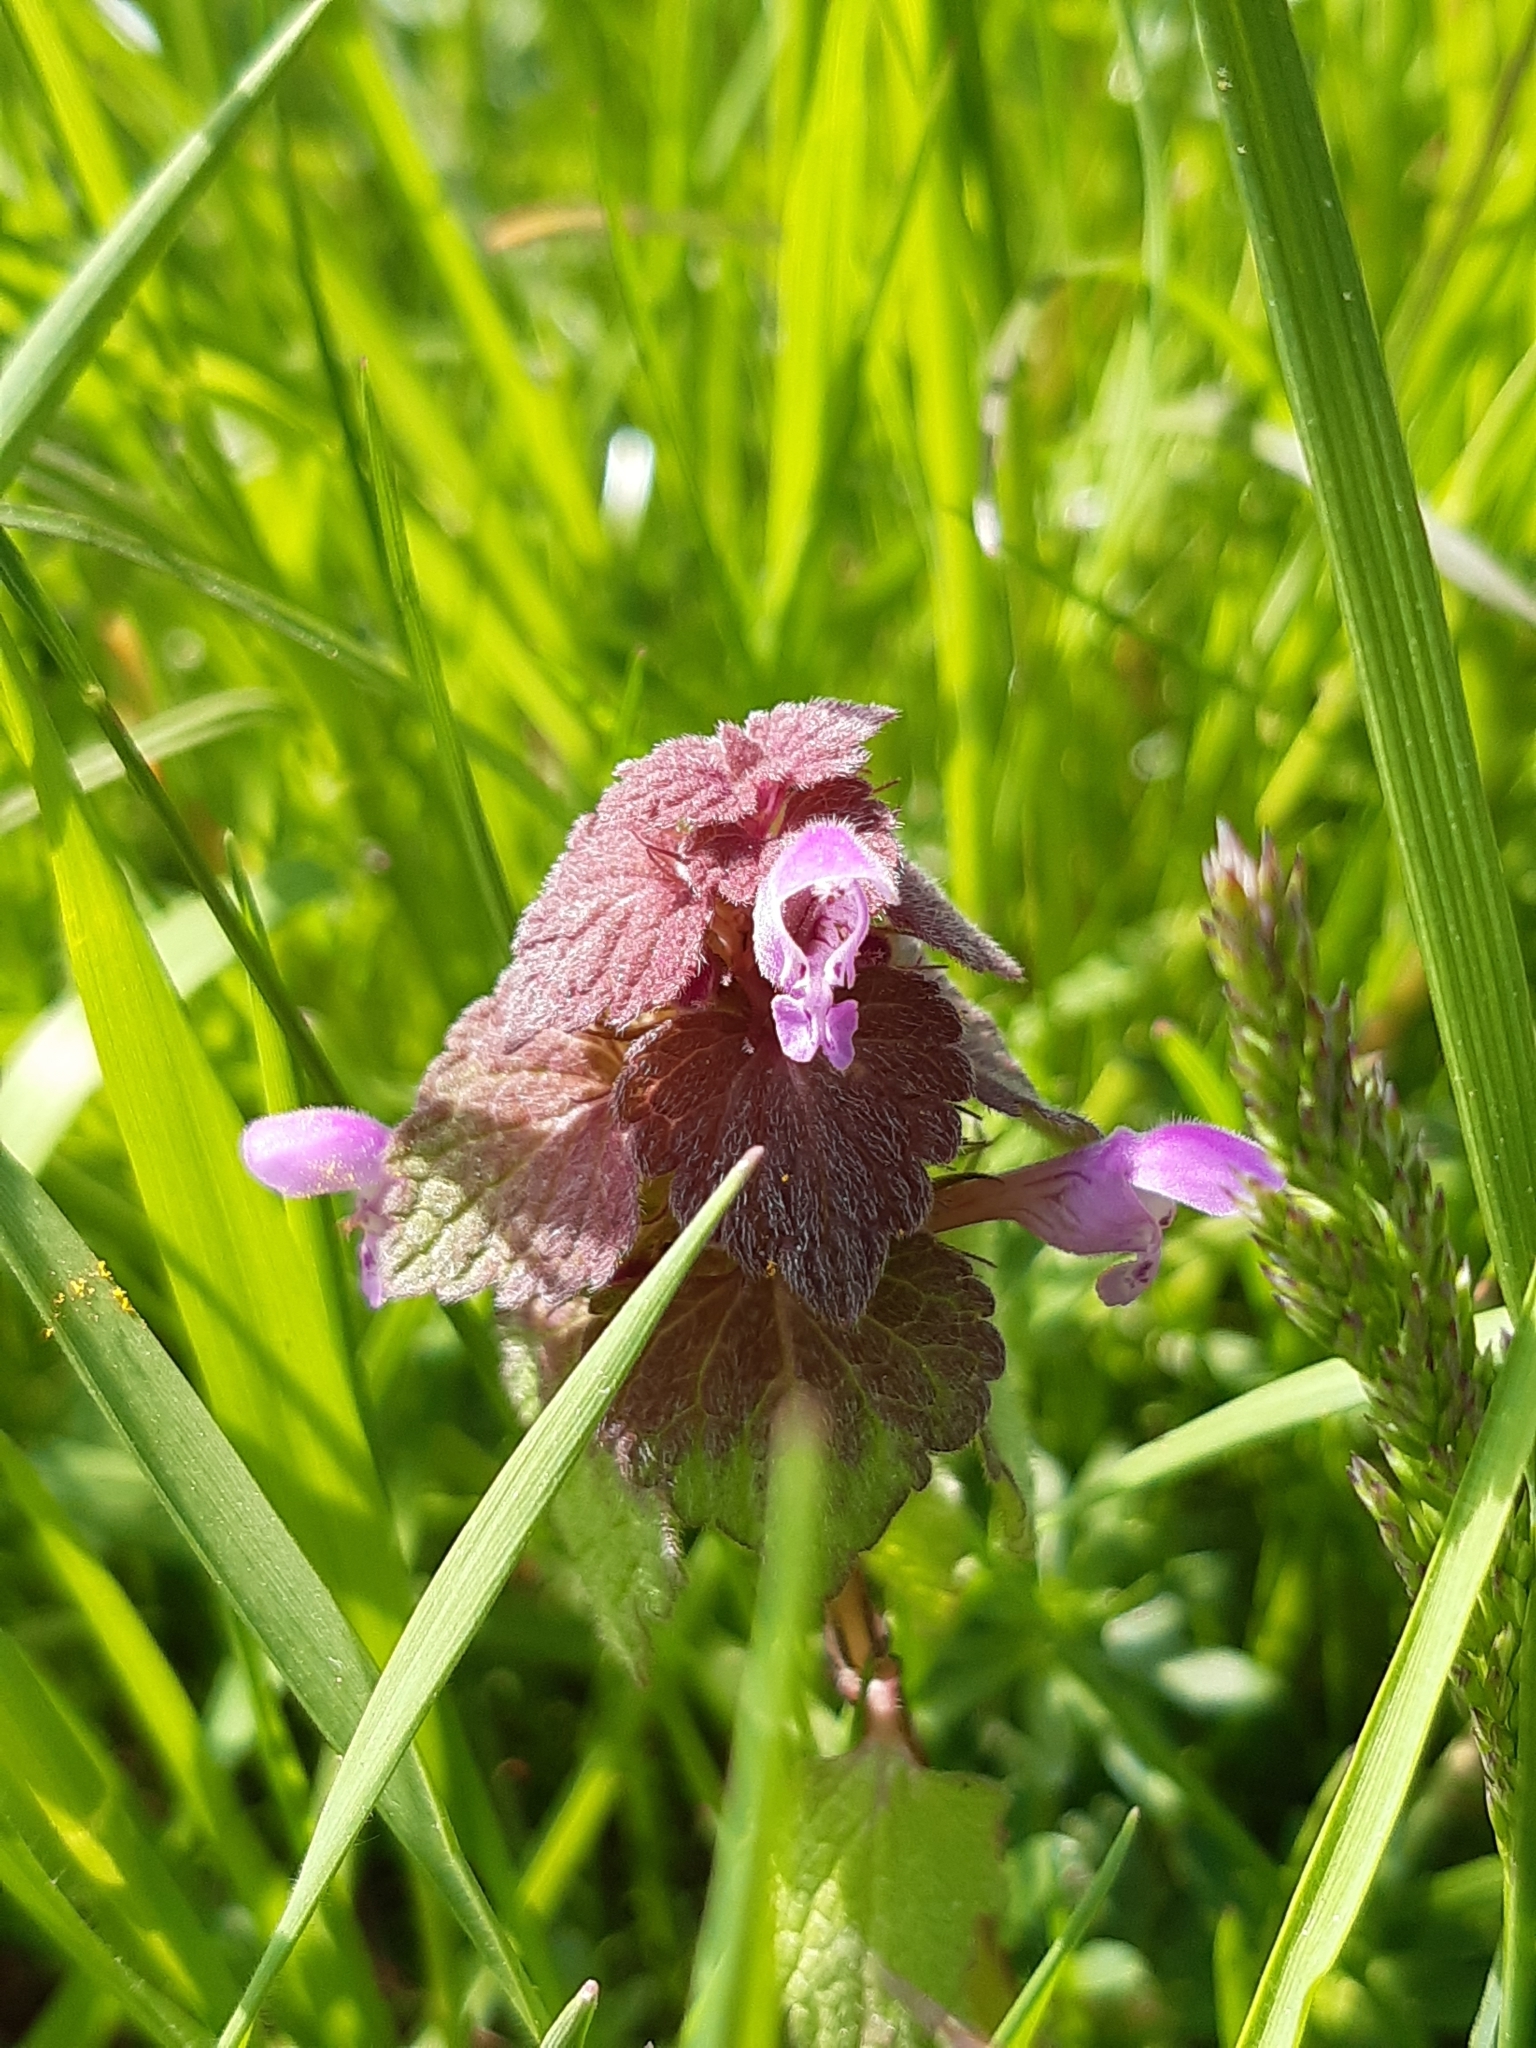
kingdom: Plantae
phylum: Tracheophyta
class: Magnoliopsida
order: Lamiales
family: Lamiaceae
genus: Lamium
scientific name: Lamium purpureum
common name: Red dead-nettle
